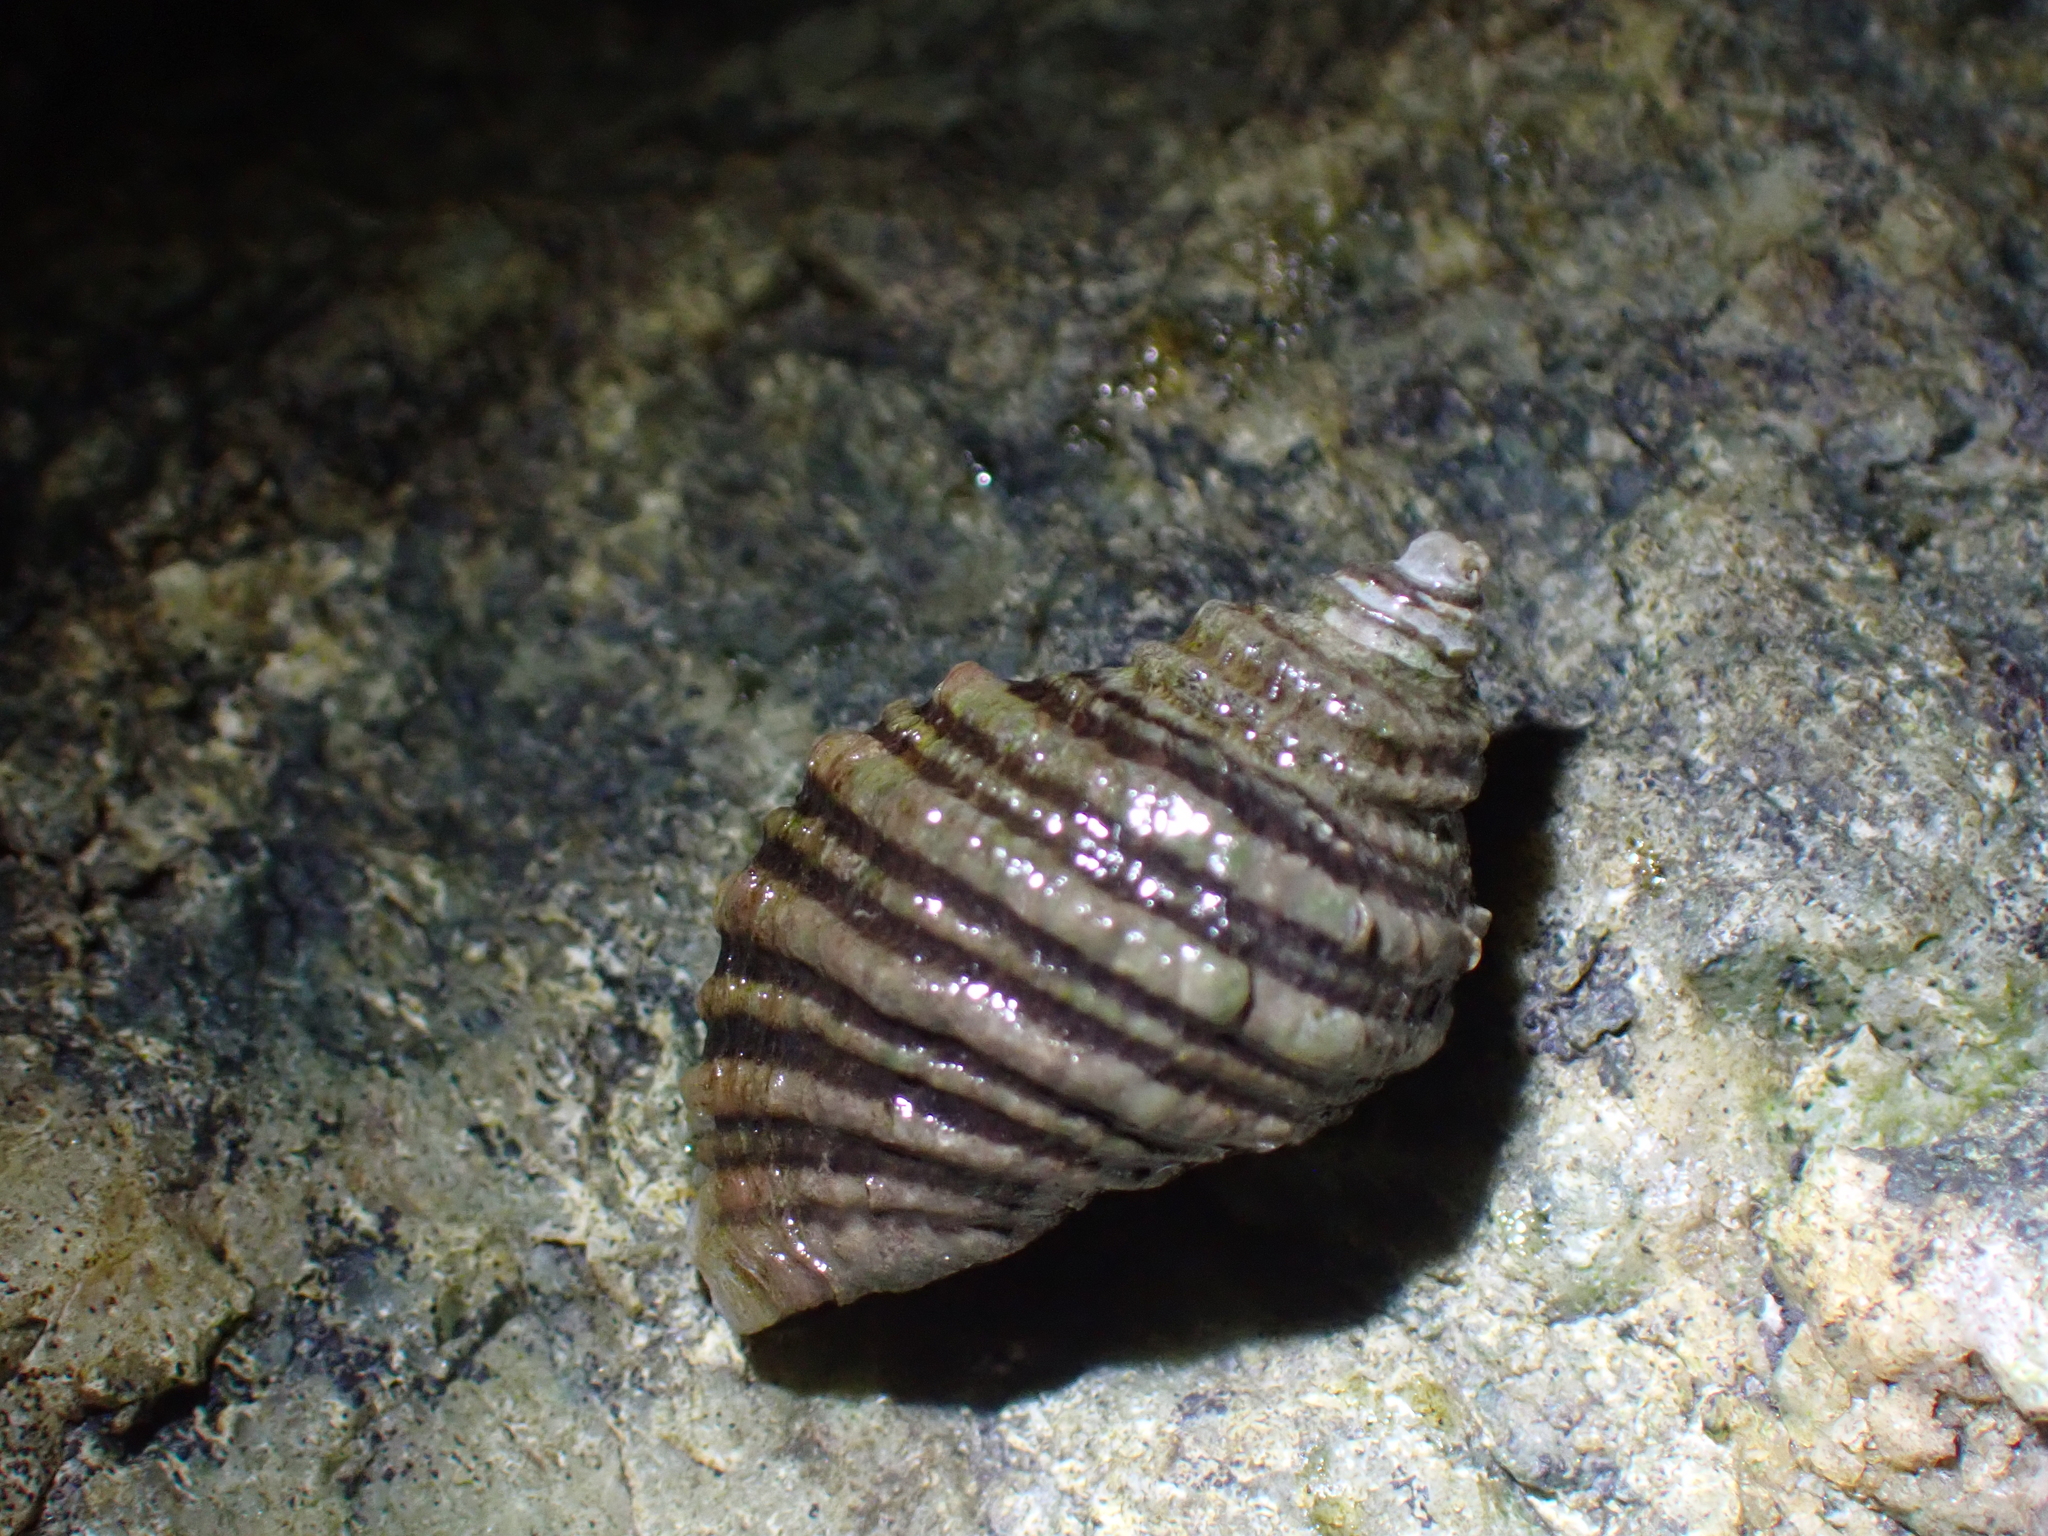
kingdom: Animalia
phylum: Mollusca
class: Gastropoda
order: Neogastropoda
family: Muricidae
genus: Nucella
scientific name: Nucella ostrina
